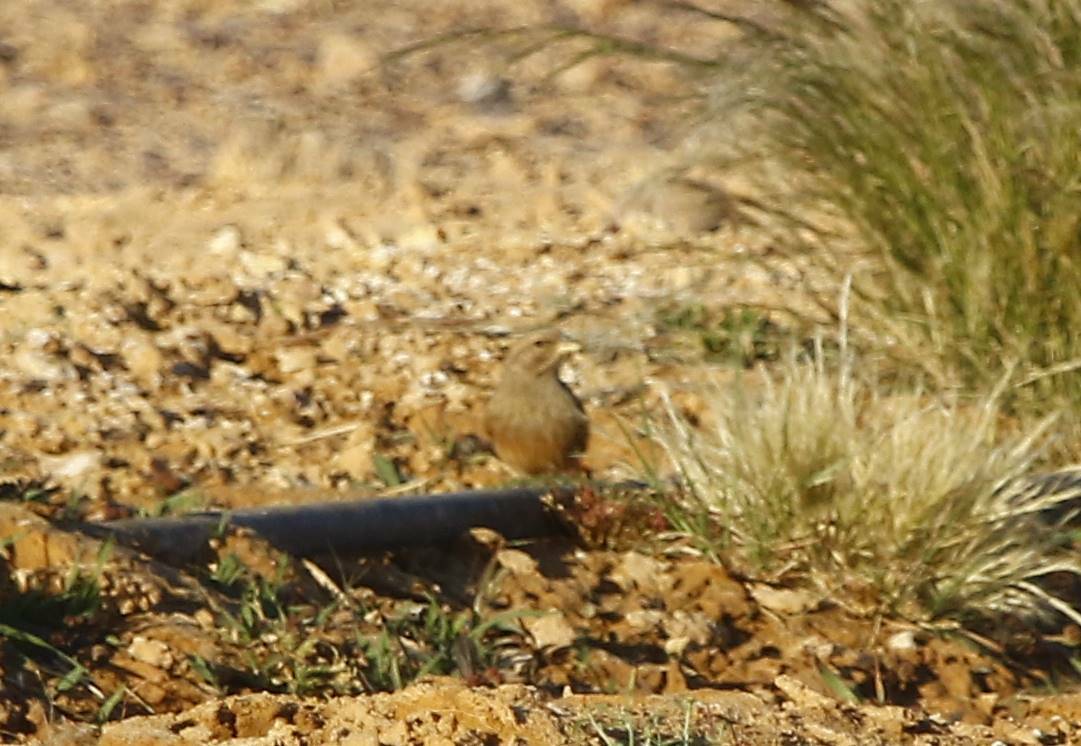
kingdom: Animalia
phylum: Chordata
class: Aves
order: Passeriformes
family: Emberizidae
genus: Emberiza
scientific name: Emberiza sahari
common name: House bunting
